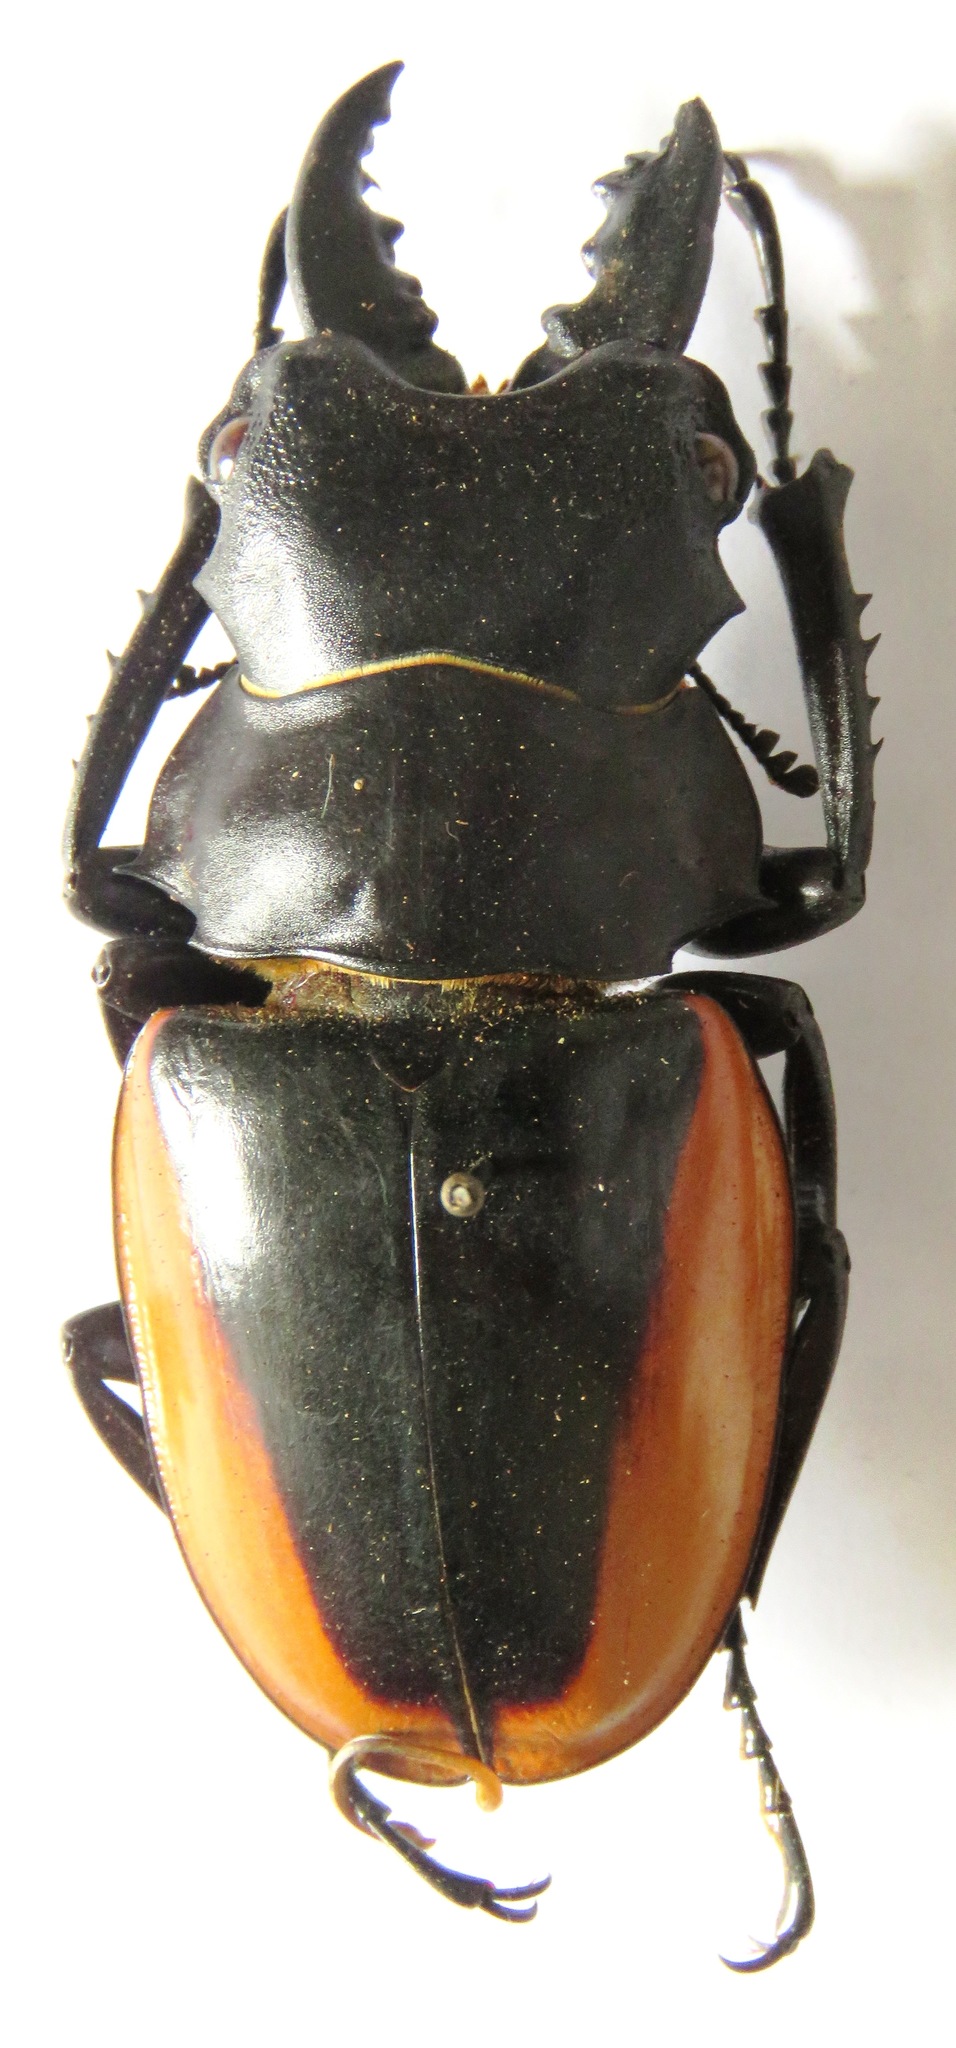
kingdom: Animalia
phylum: Arthropoda
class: Insecta
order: Coleoptera
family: Lucanidae
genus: Odontolabis
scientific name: Odontolabis cuvera
